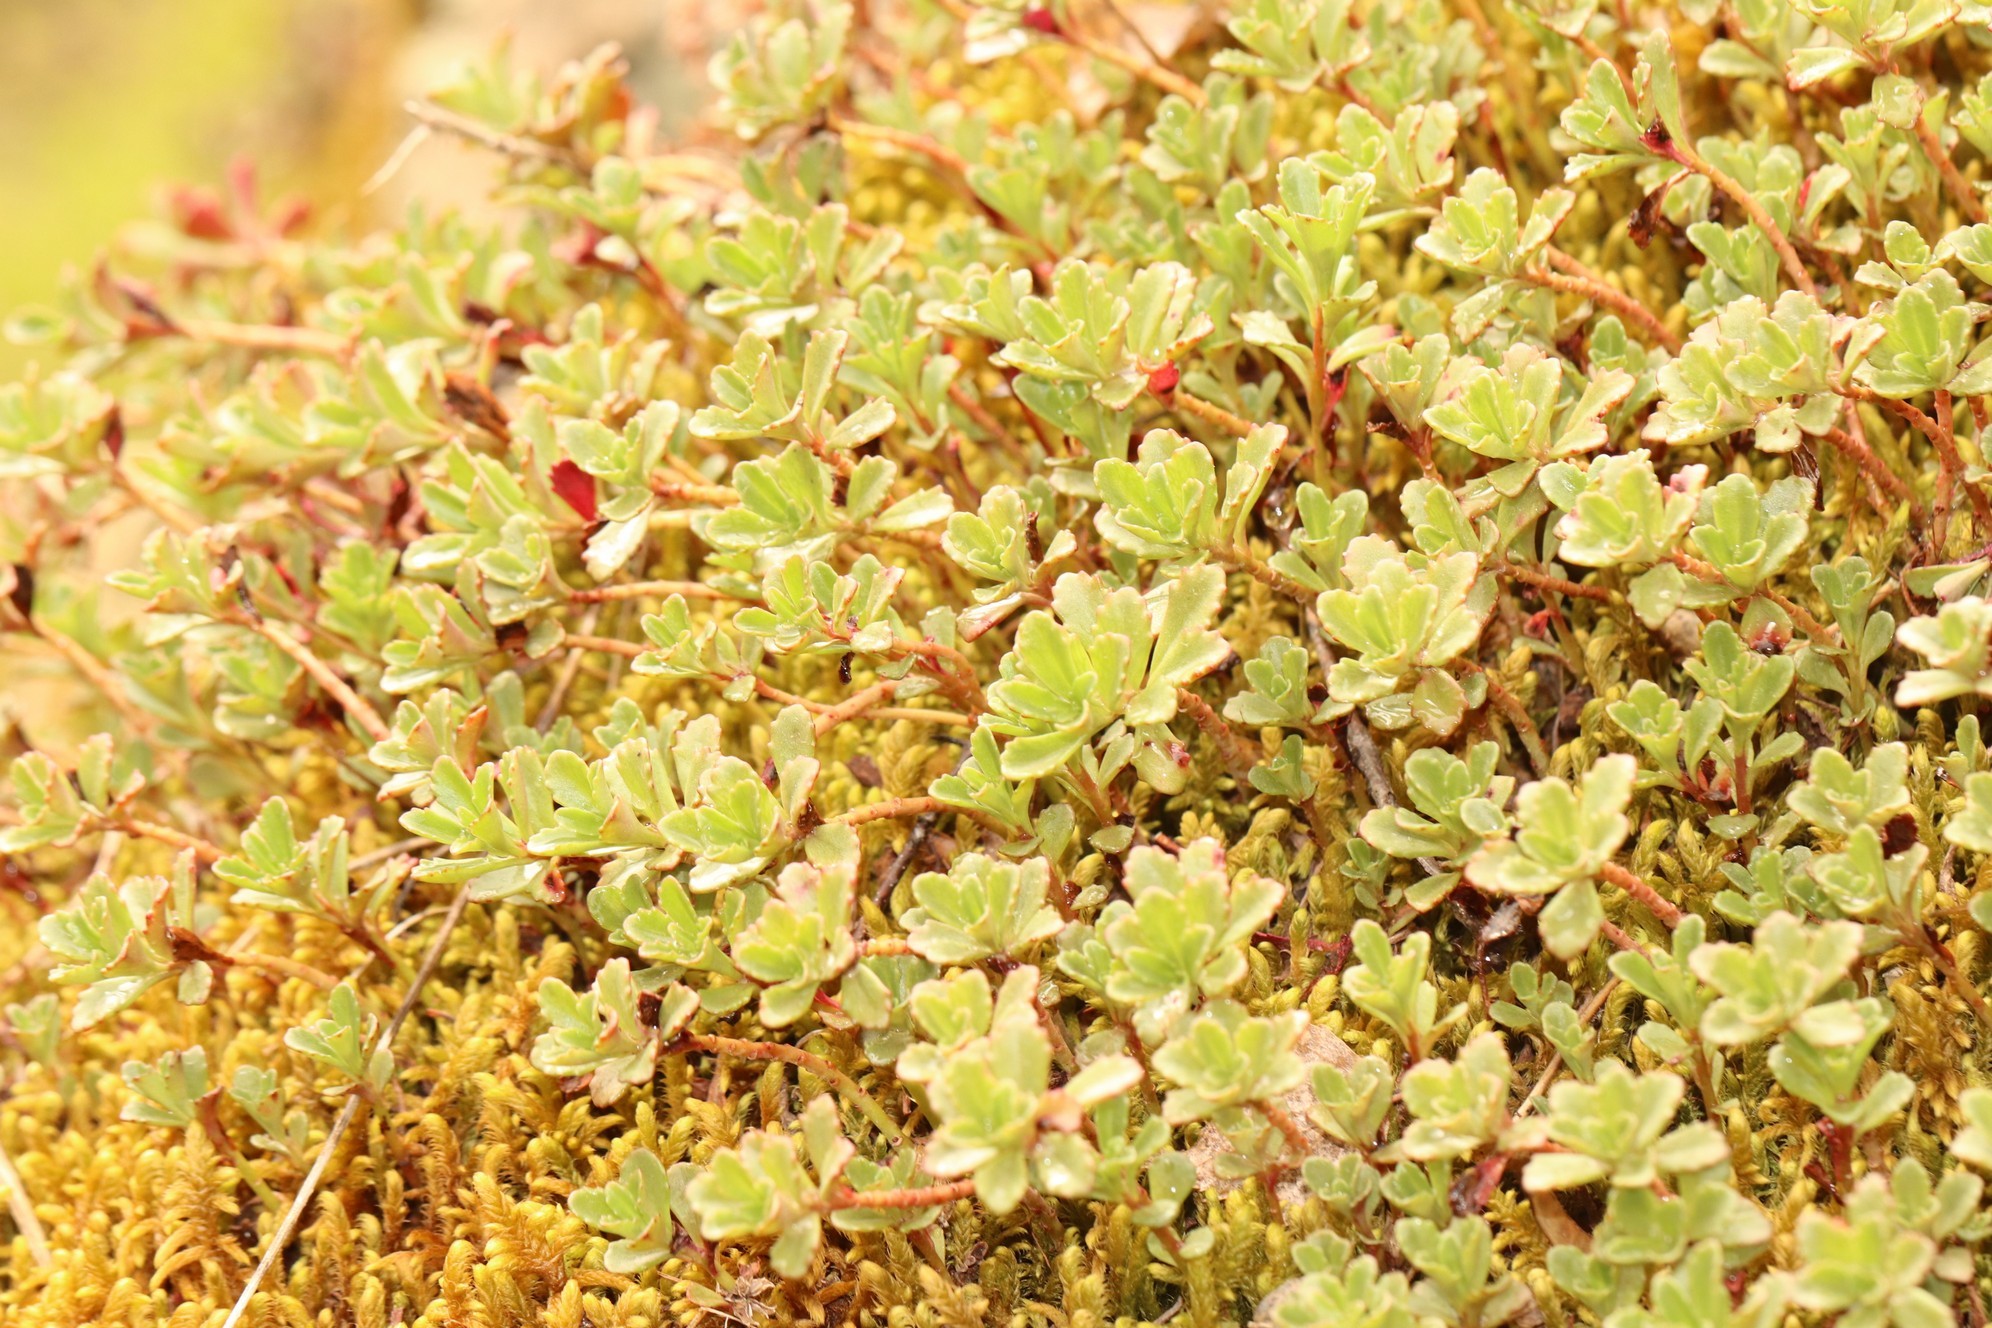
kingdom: Plantae
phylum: Tracheophyta
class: Magnoliopsida
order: Saxifragales
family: Crassulaceae
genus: Phedimus
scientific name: Phedimus hybridus
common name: Hybrid stonecrop
